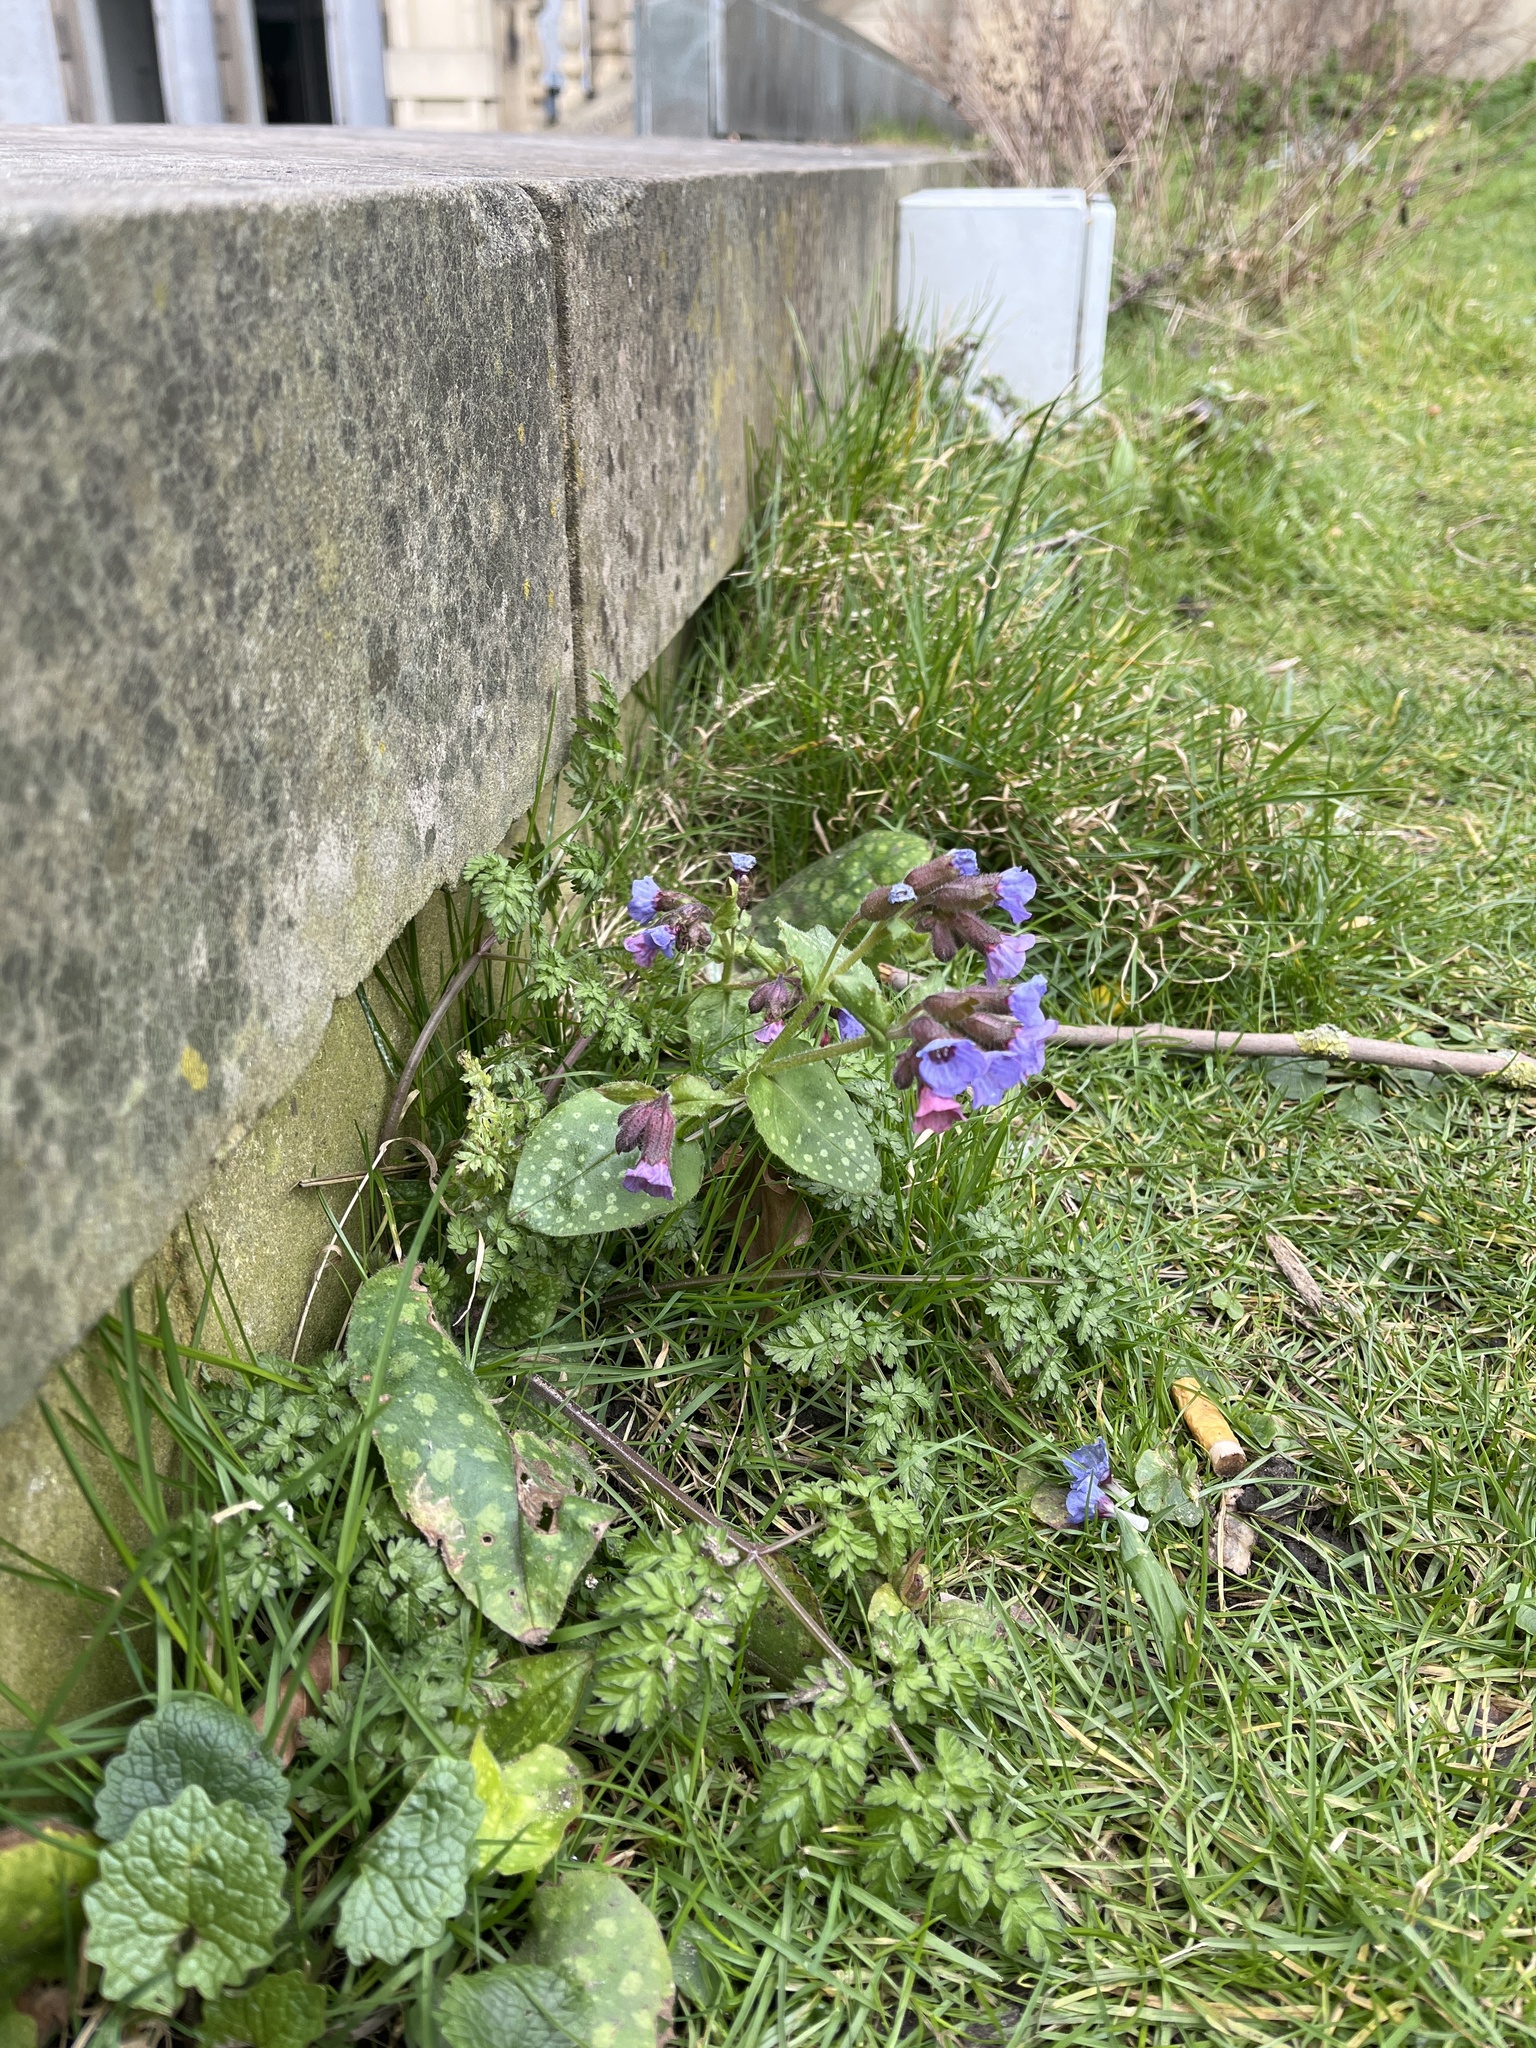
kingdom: Plantae
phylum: Tracheophyta
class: Magnoliopsida
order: Boraginales
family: Boraginaceae
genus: Pulmonaria
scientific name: Pulmonaria officinalis
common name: Lungwort
